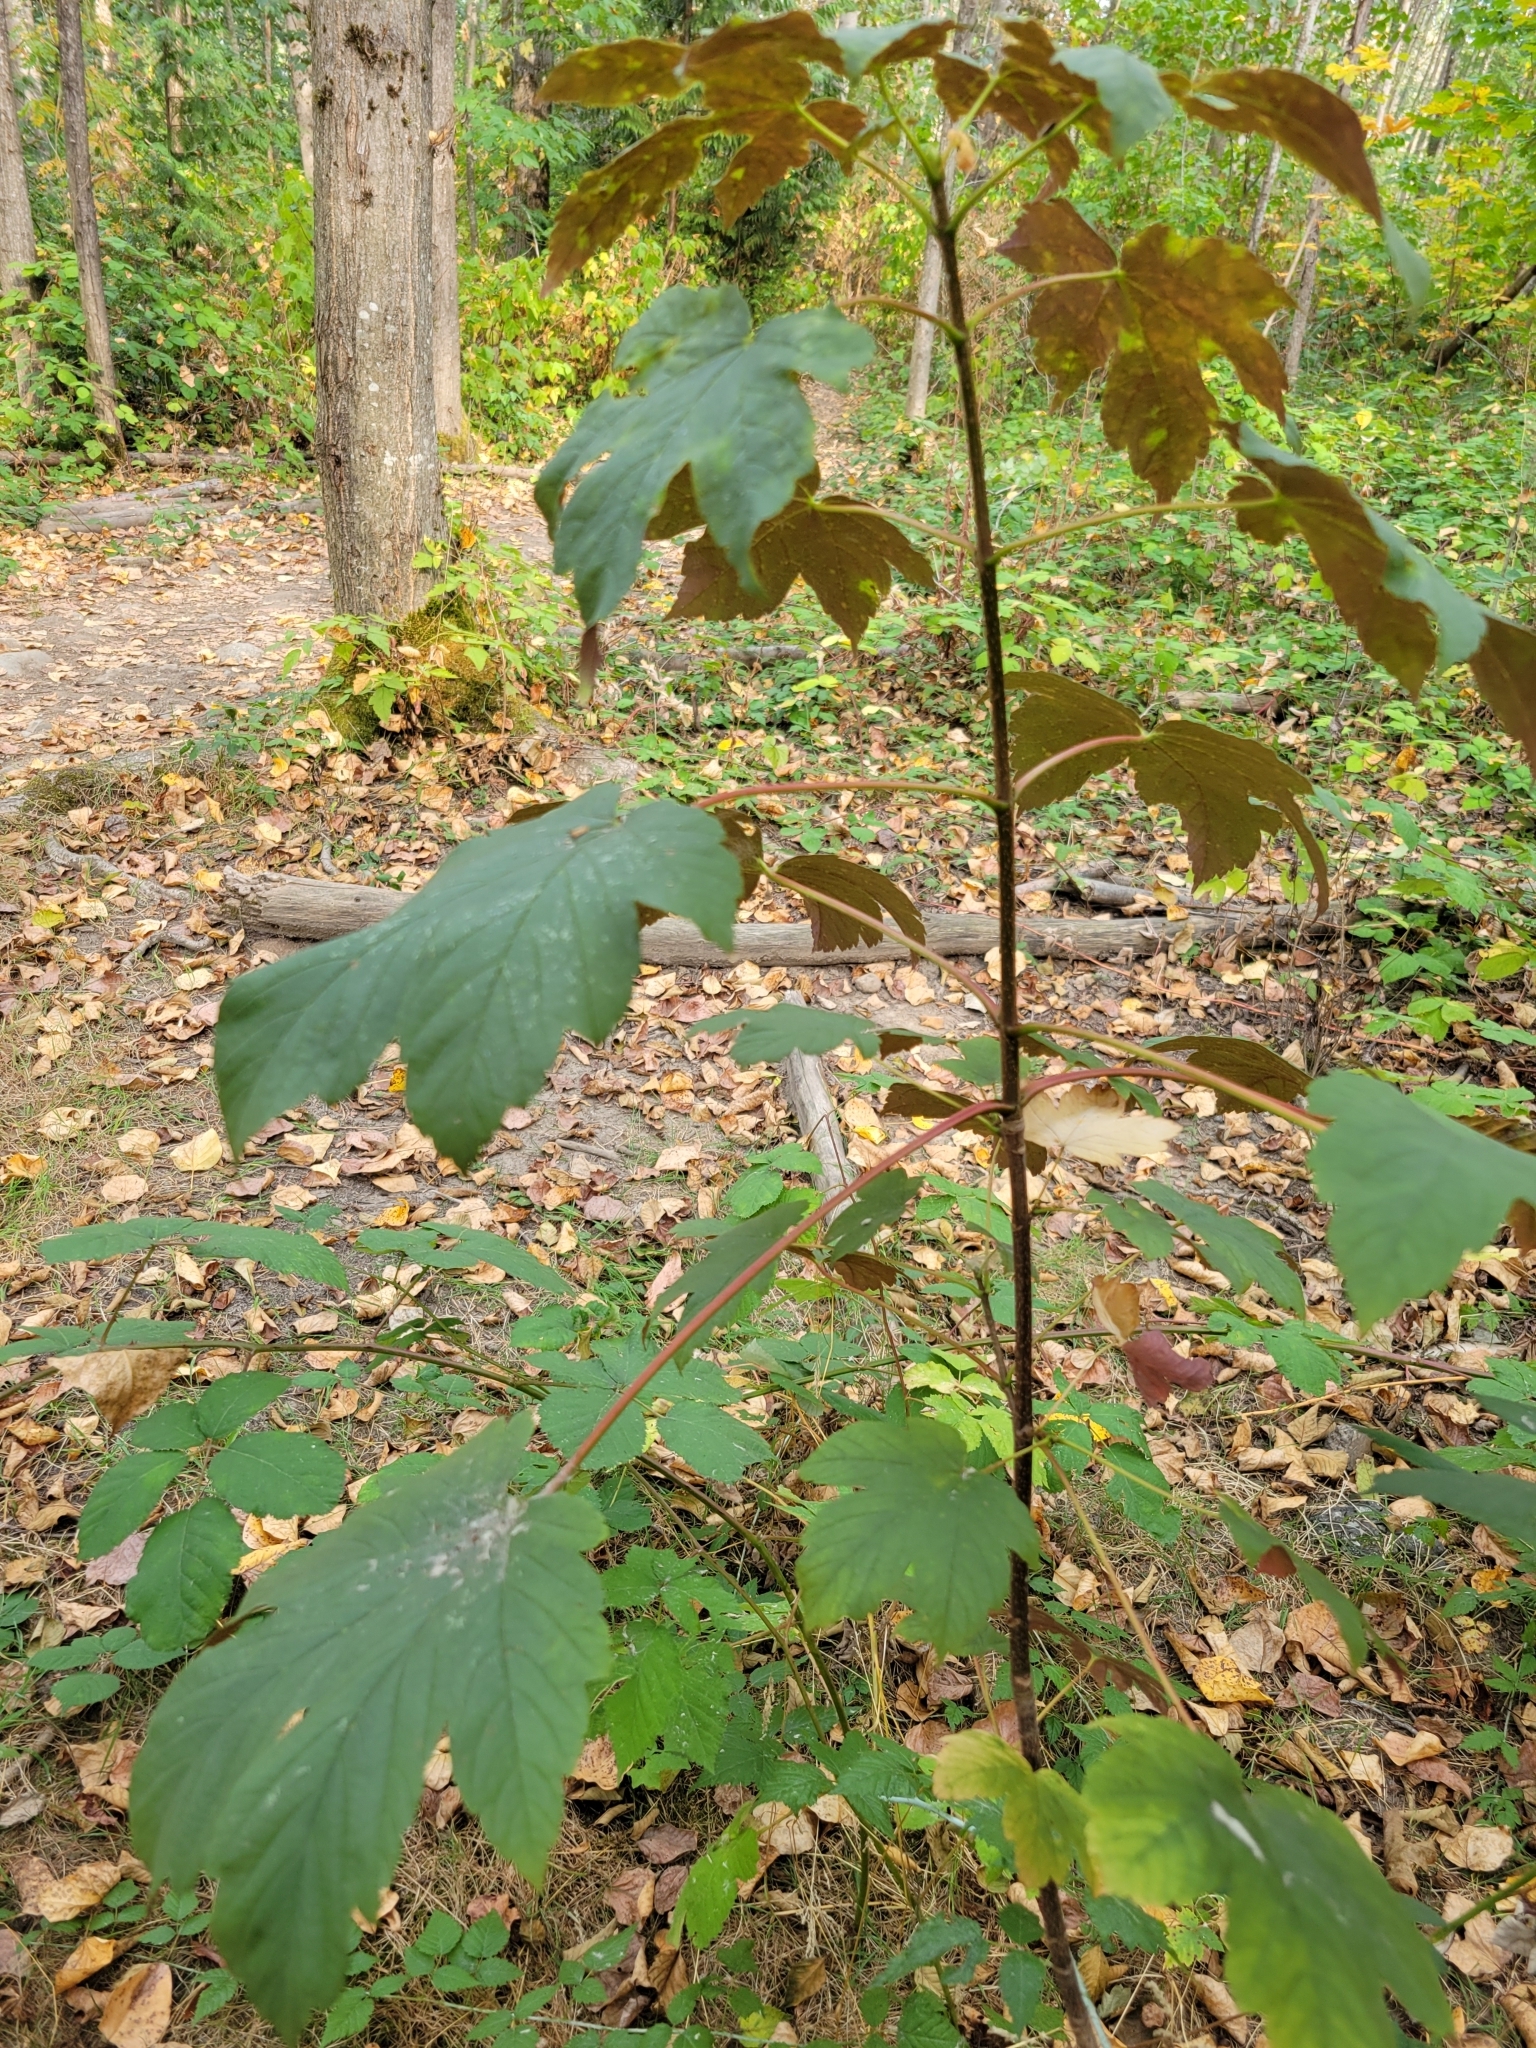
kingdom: Plantae
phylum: Tracheophyta
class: Magnoliopsida
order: Sapindales
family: Sapindaceae
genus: Acer
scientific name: Acer pseudoplatanus
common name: Sycamore
